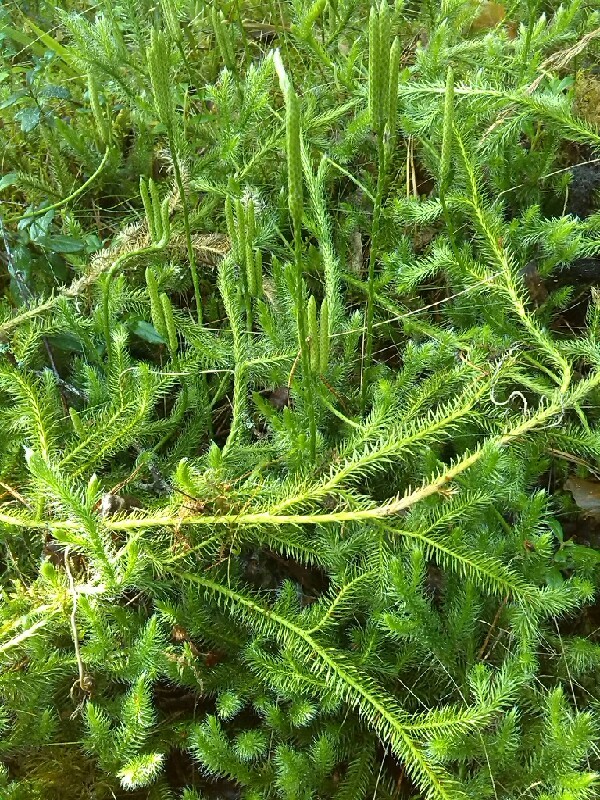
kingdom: Plantae
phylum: Tracheophyta
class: Lycopodiopsida
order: Lycopodiales
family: Lycopodiaceae
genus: Lycopodium
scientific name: Lycopodium clavatum
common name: Stag's-horn clubmoss
